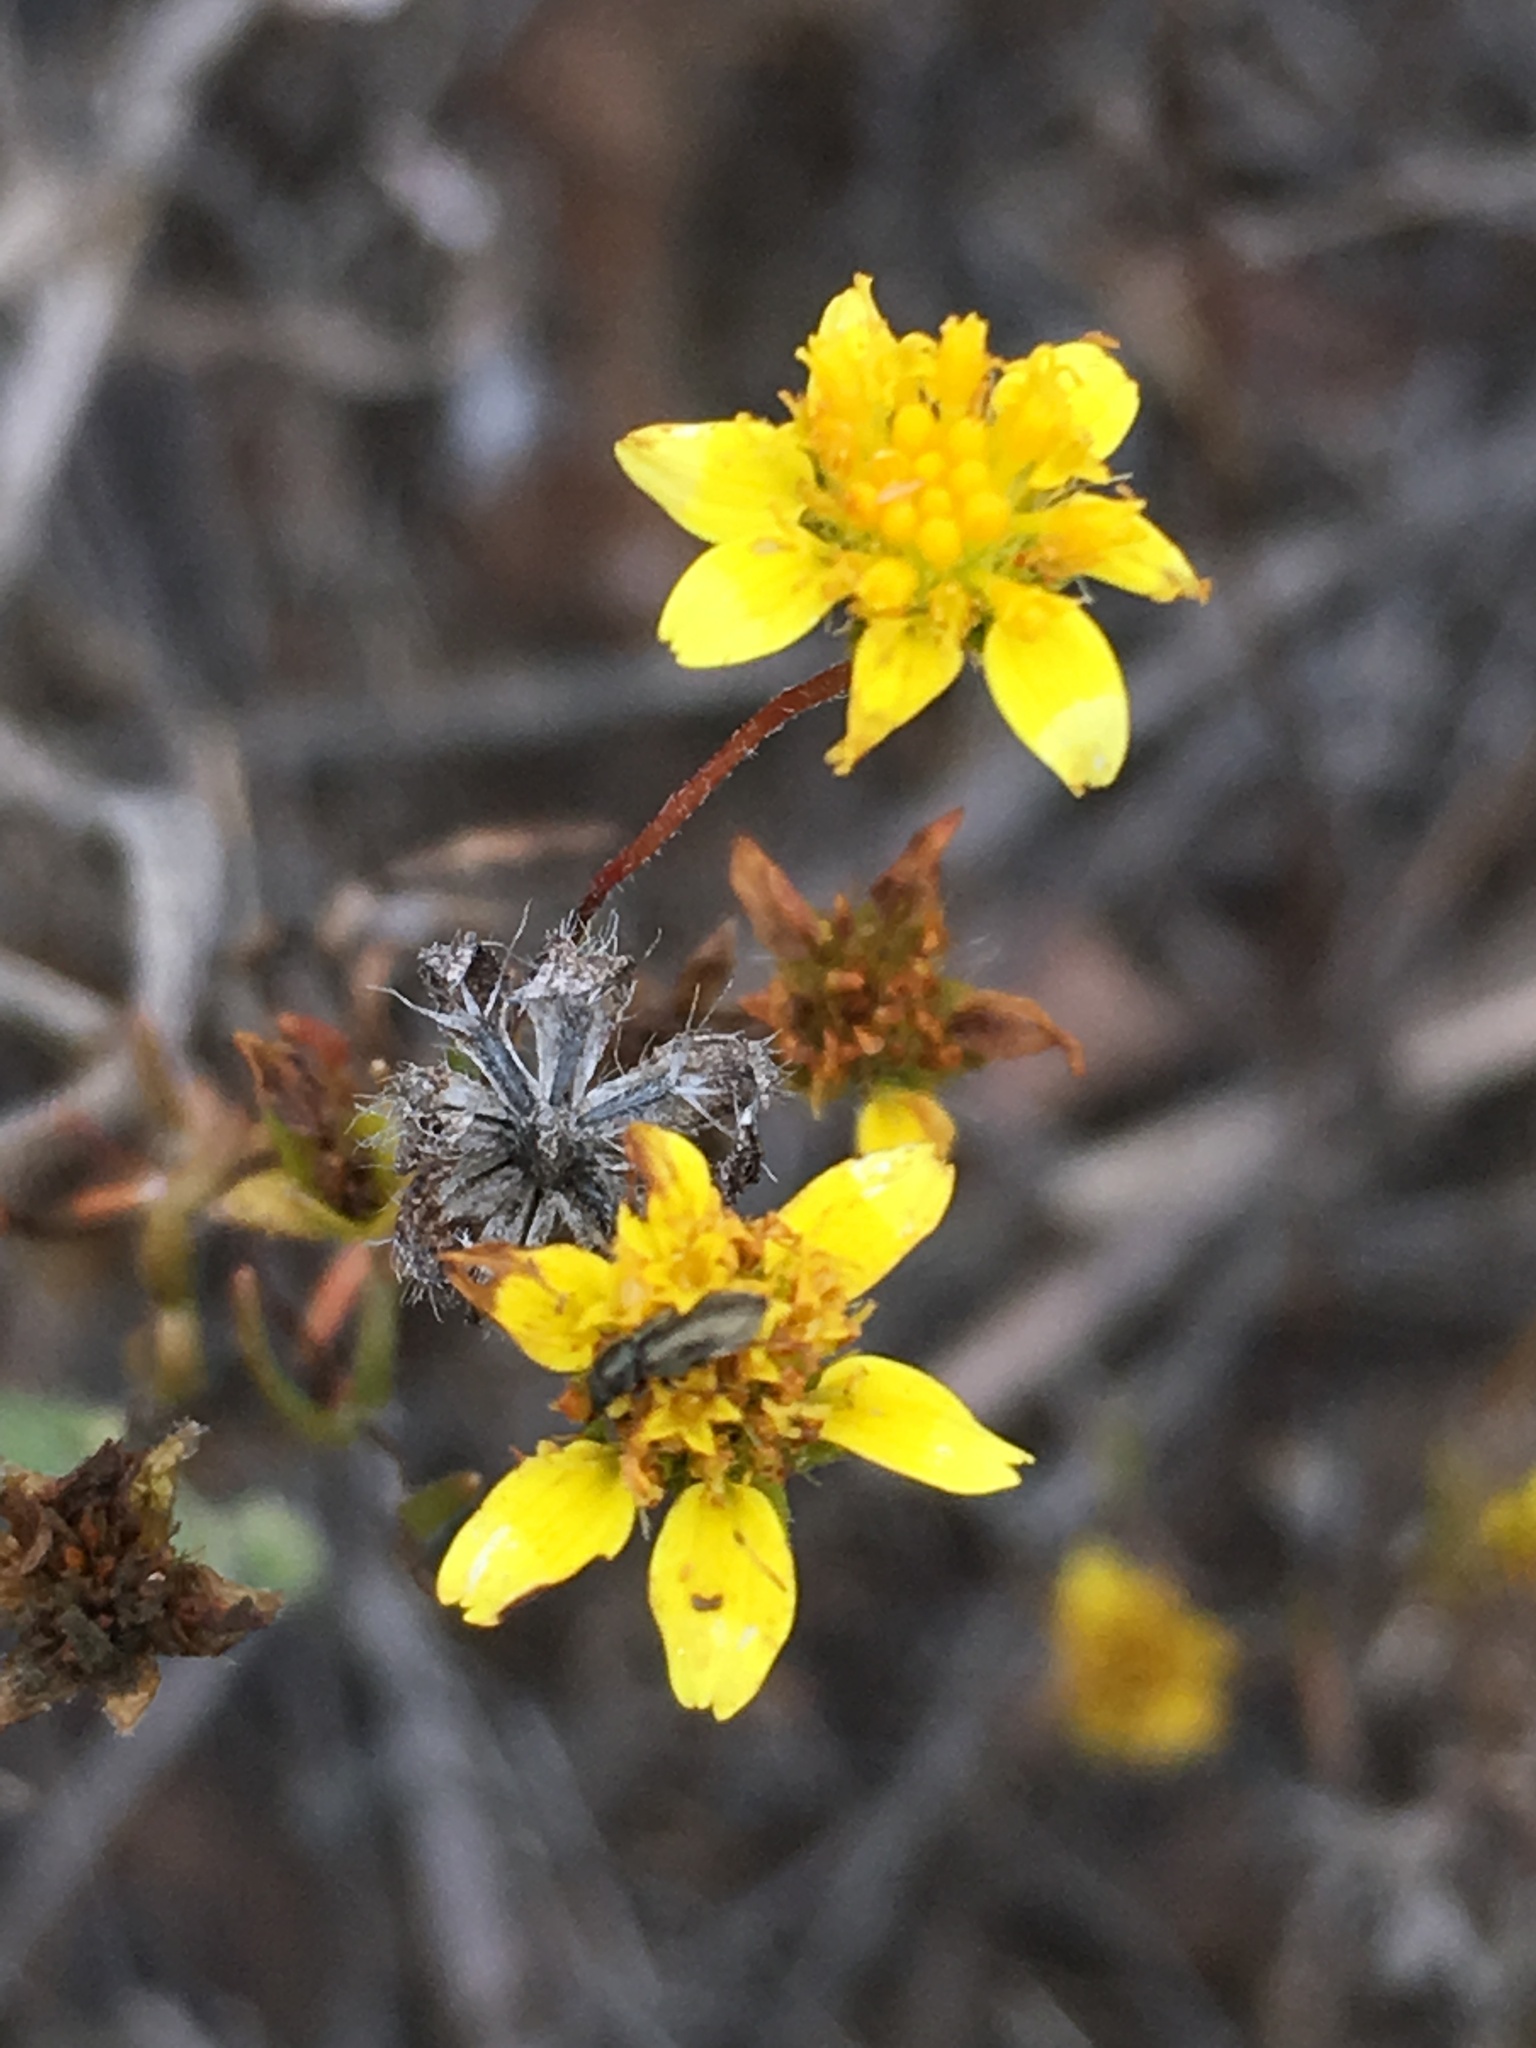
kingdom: Plantae
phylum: Tracheophyta
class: Magnoliopsida
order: Asterales
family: Asteraceae
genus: Lasthenia
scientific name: Lasthenia gracilis
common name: Common goldfields
